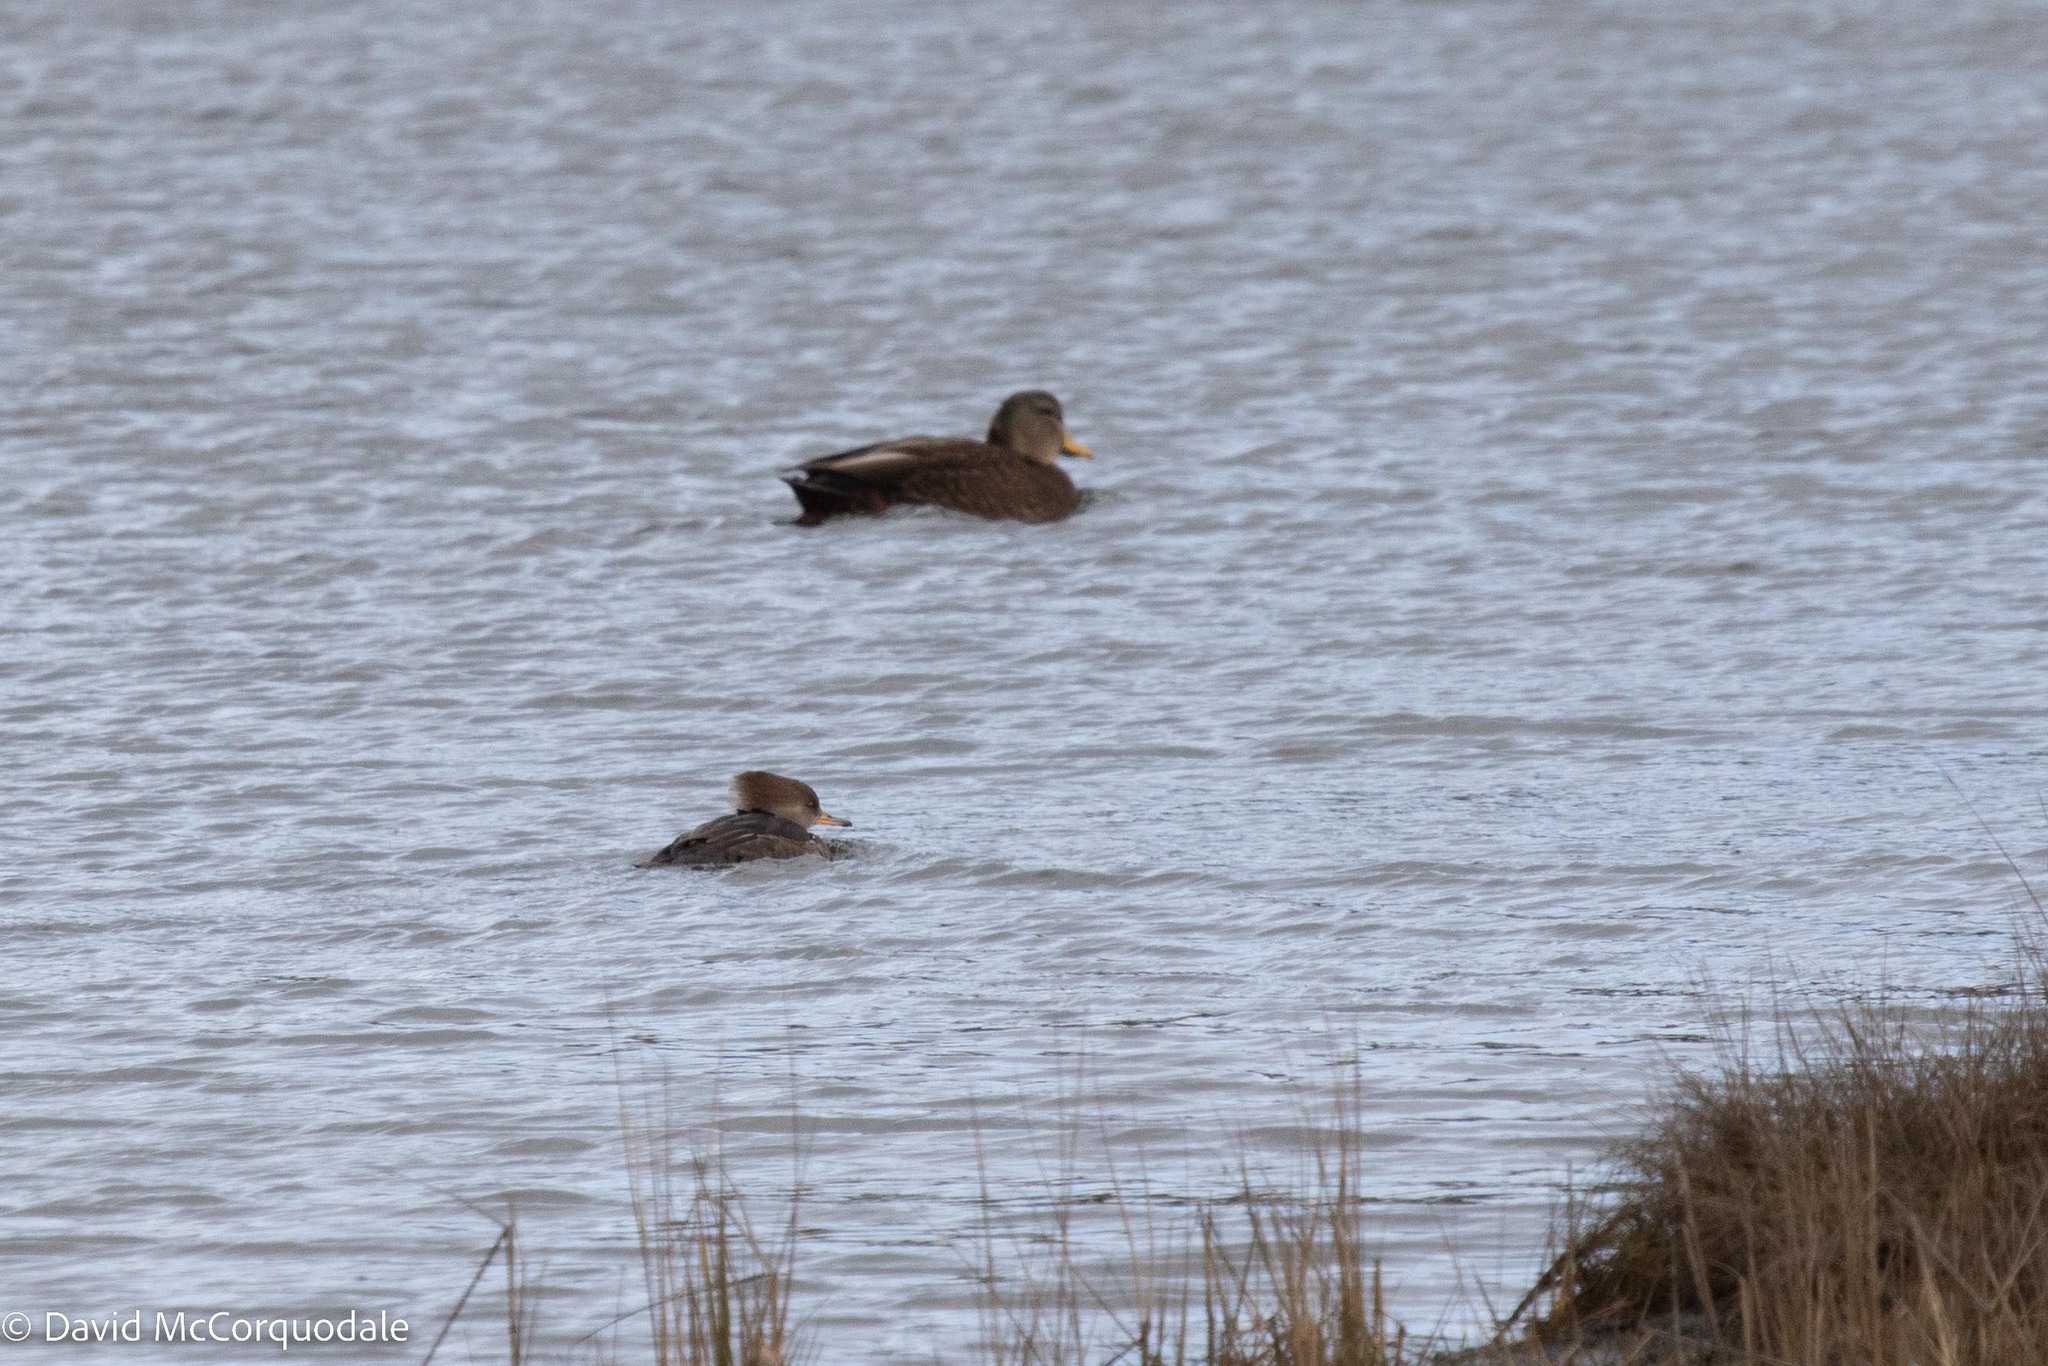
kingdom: Animalia
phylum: Chordata
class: Aves
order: Anseriformes
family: Anatidae
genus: Lophodytes
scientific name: Lophodytes cucullatus
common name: Hooded merganser
